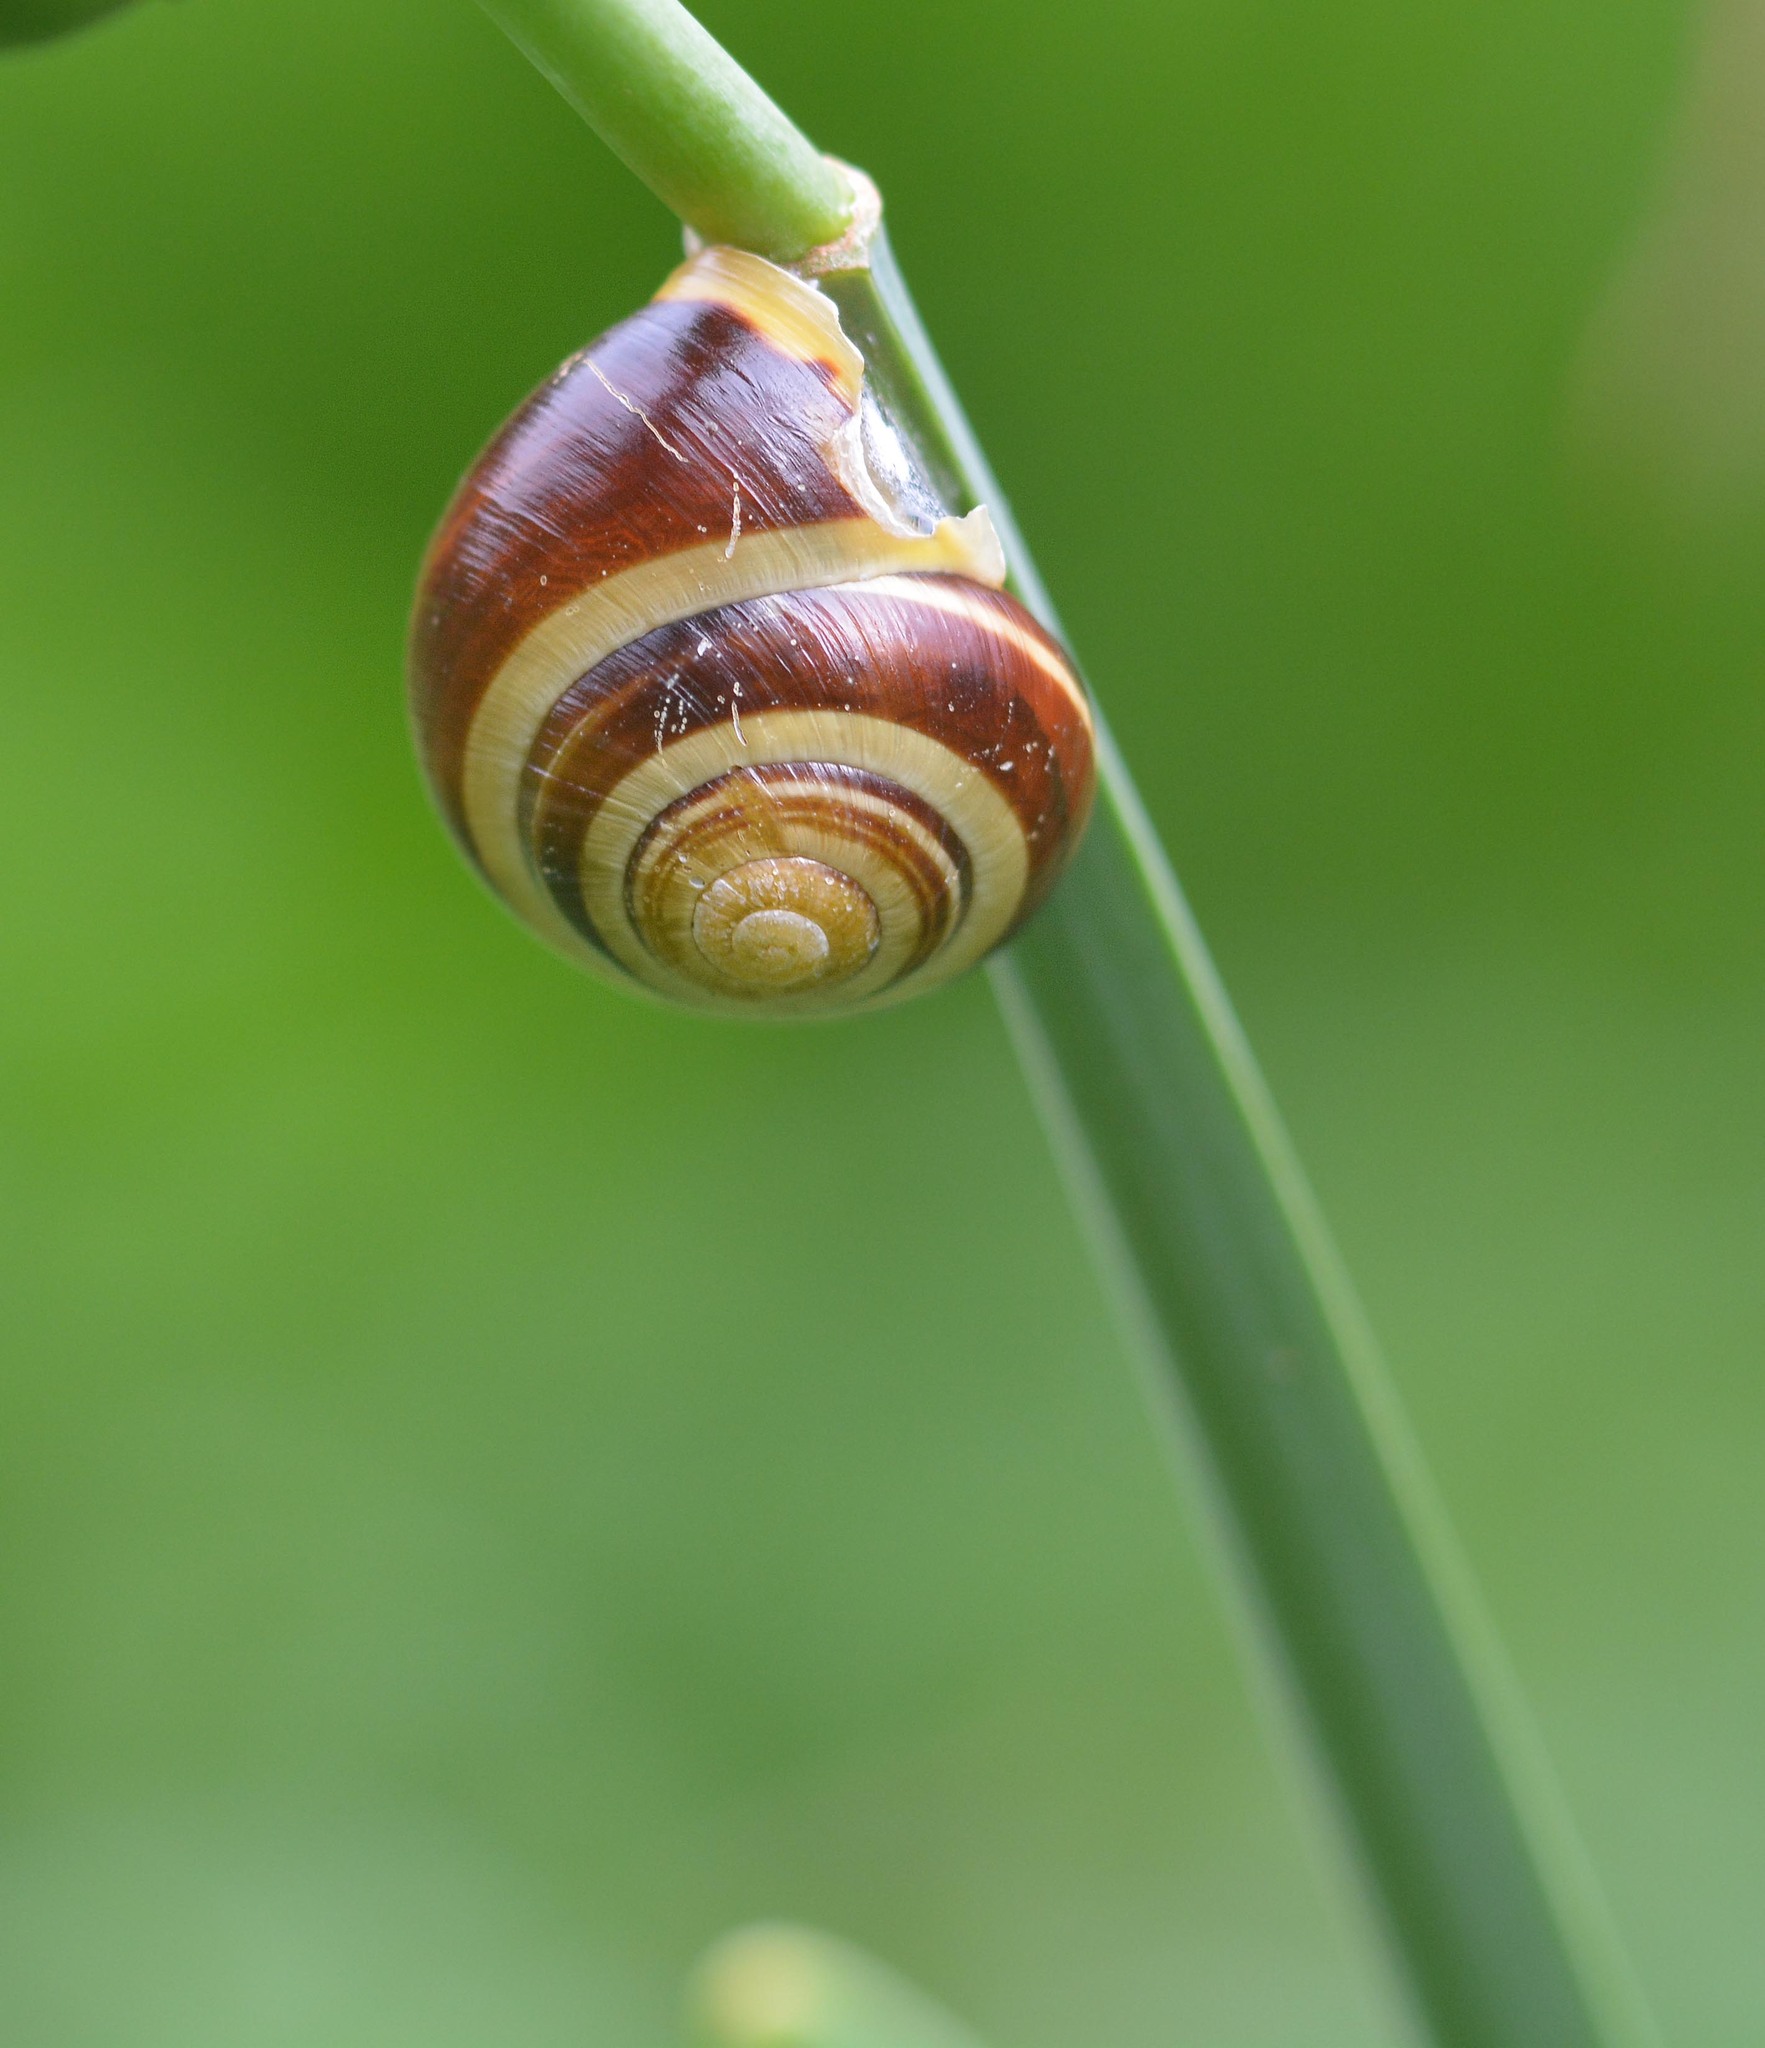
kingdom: Animalia
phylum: Mollusca
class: Gastropoda
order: Stylommatophora
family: Helicidae
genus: Cepaea
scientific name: Cepaea hortensis
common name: White-lip gardensnail
